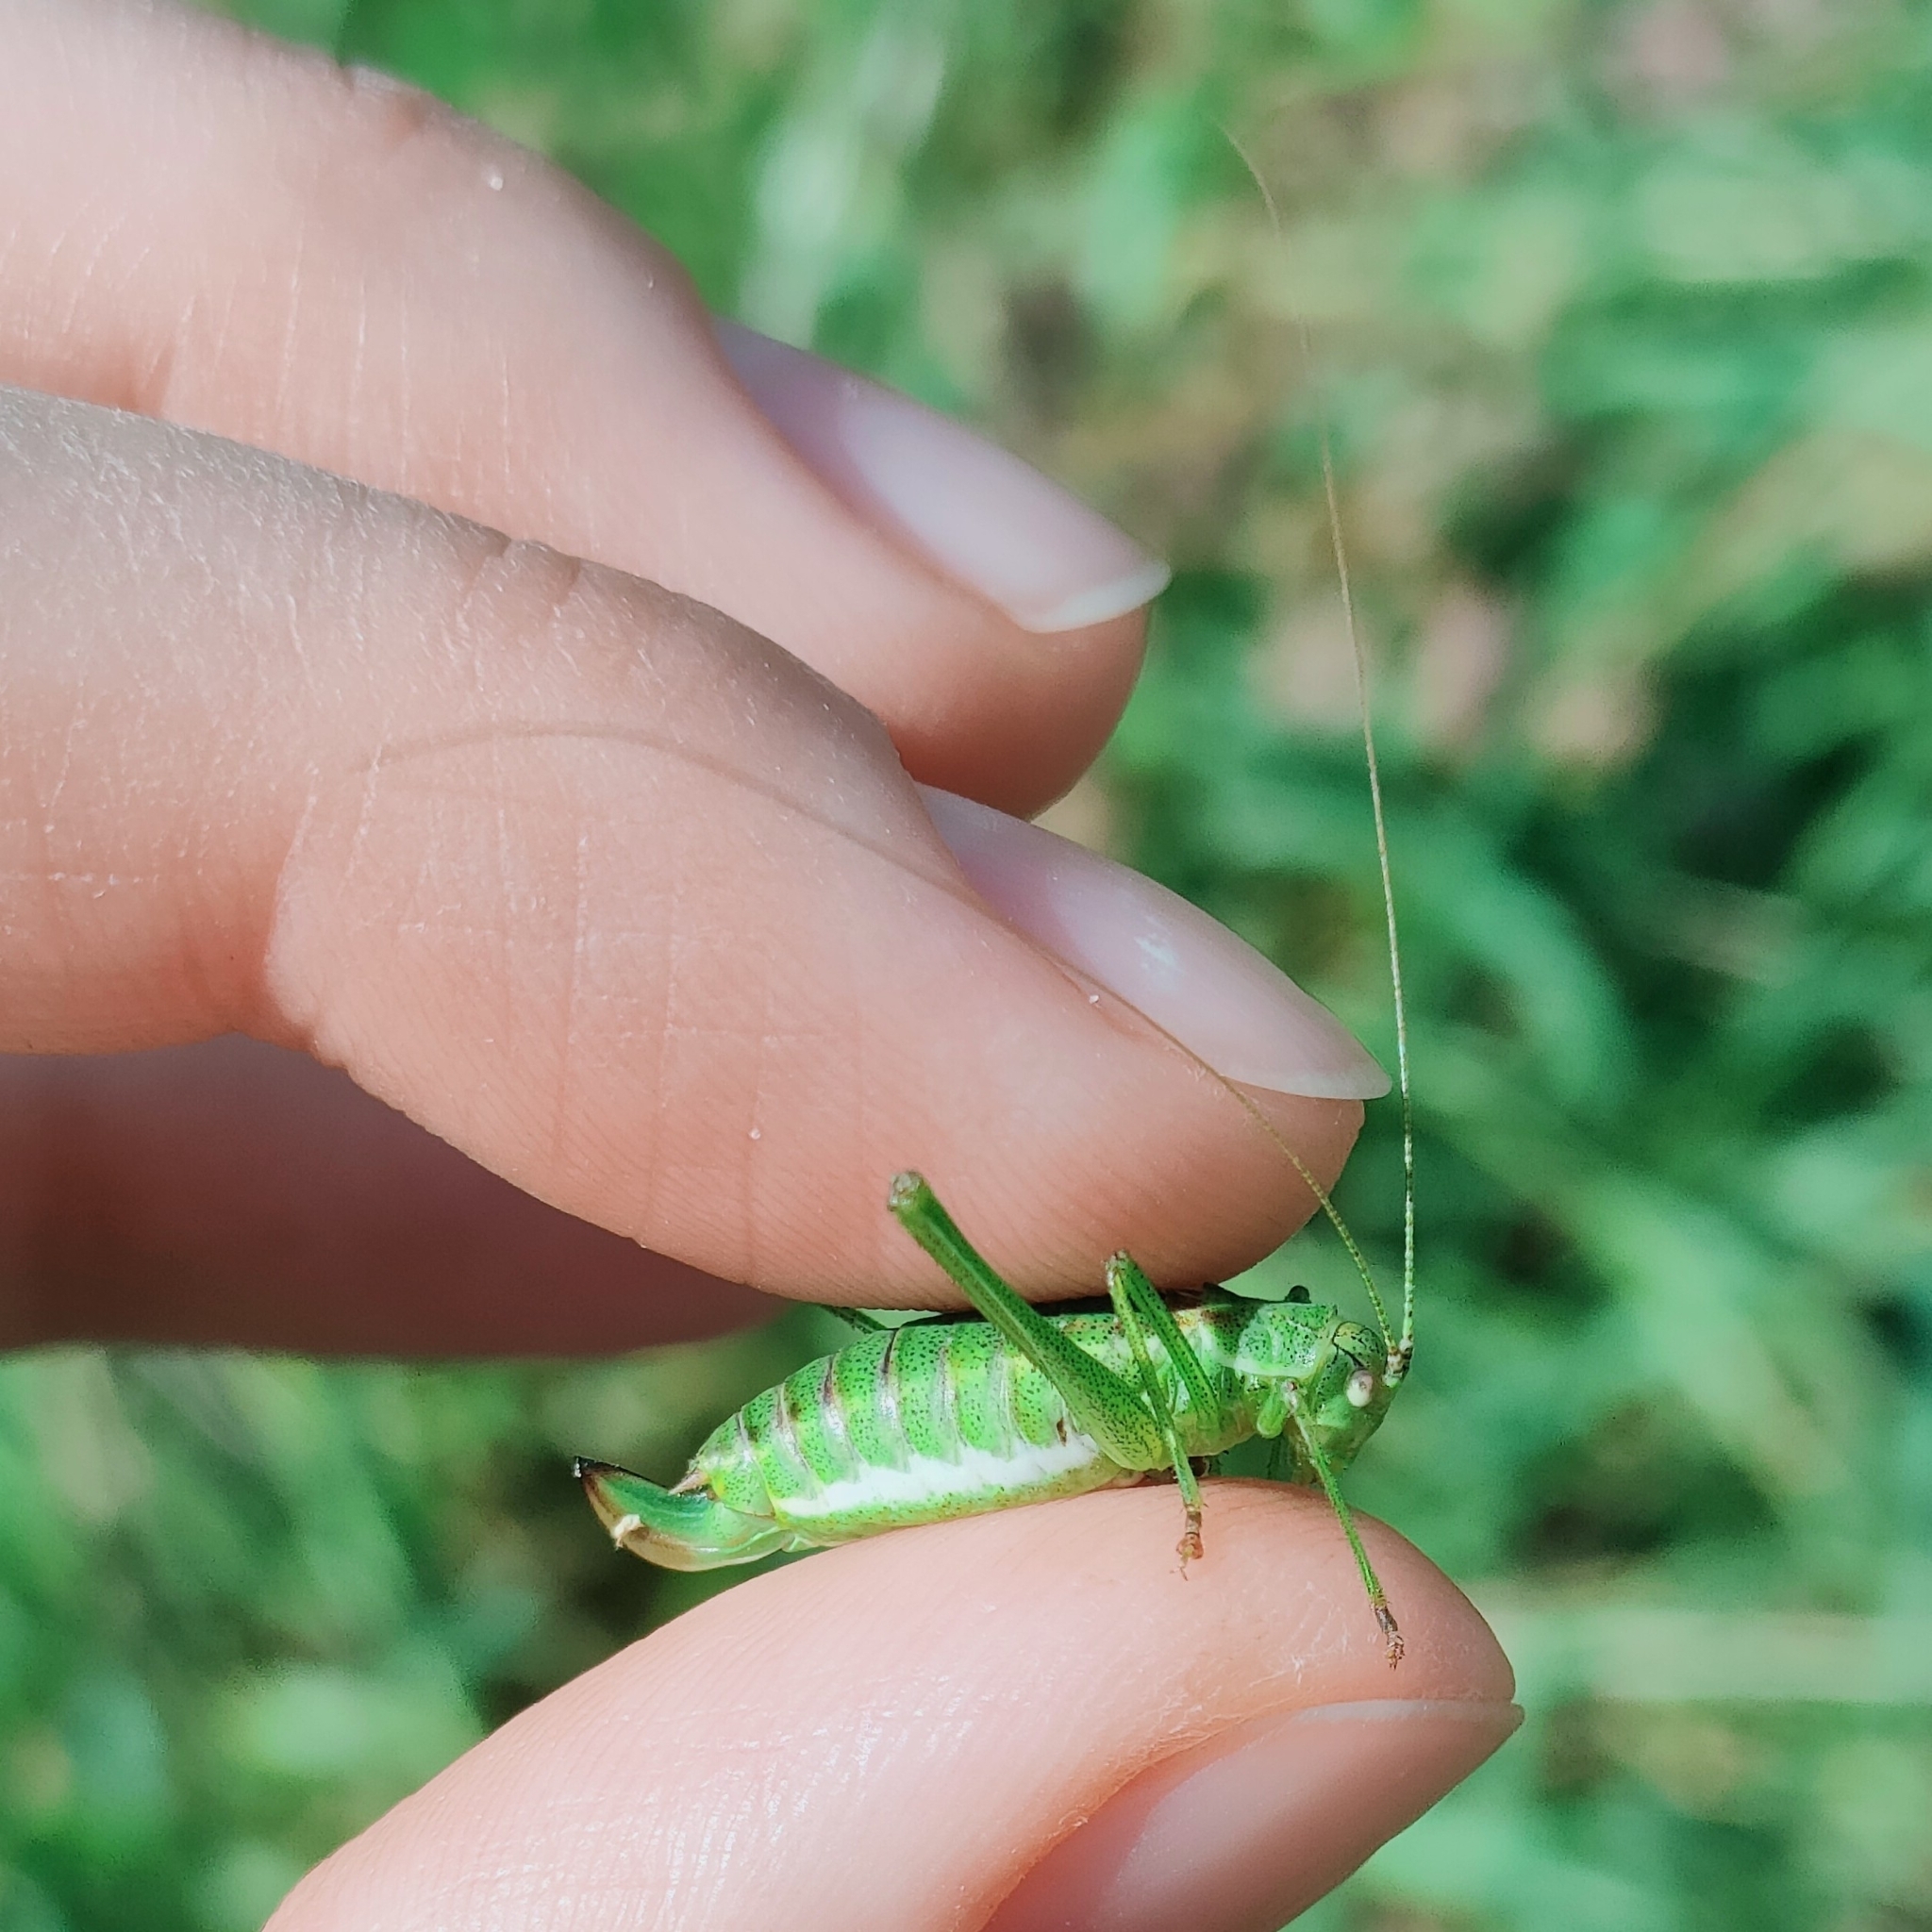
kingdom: Animalia
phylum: Arthropoda
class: Insecta
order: Orthoptera
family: Tettigoniidae
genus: Leptophyes
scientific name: Leptophyes albovittata
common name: Striped bush-cricket
